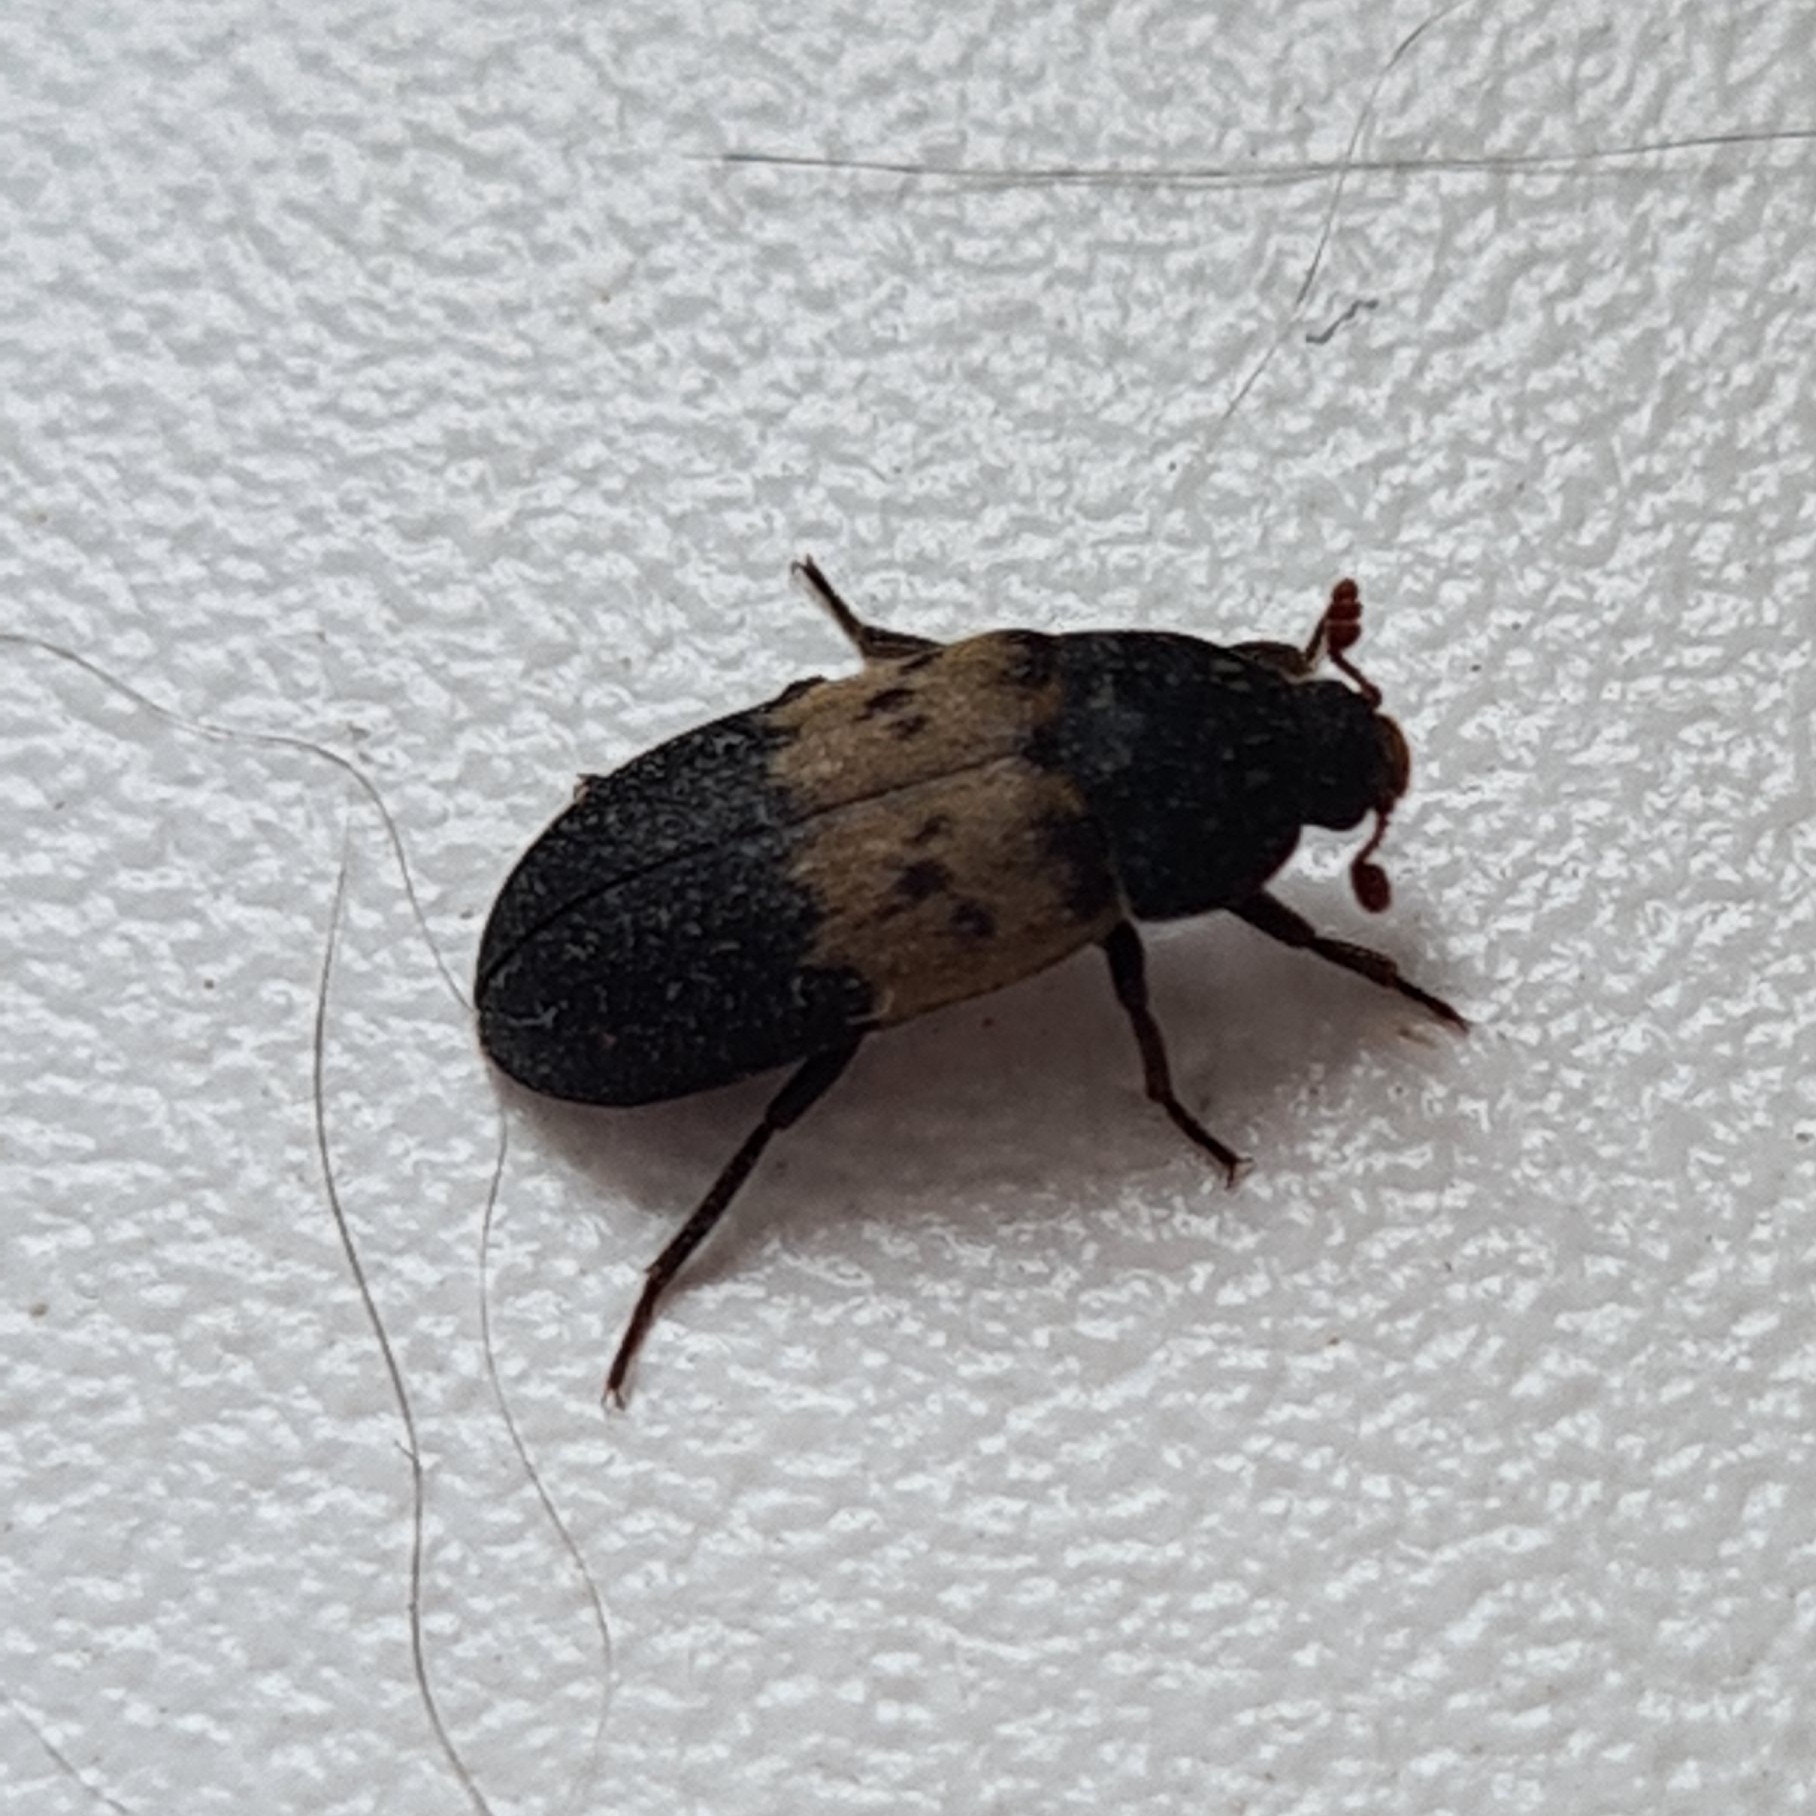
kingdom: Animalia
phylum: Arthropoda
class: Insecta
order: Coleoptera
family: Dermestidae
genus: Dermestes
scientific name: Dermestes lardarius
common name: Larder beetle
